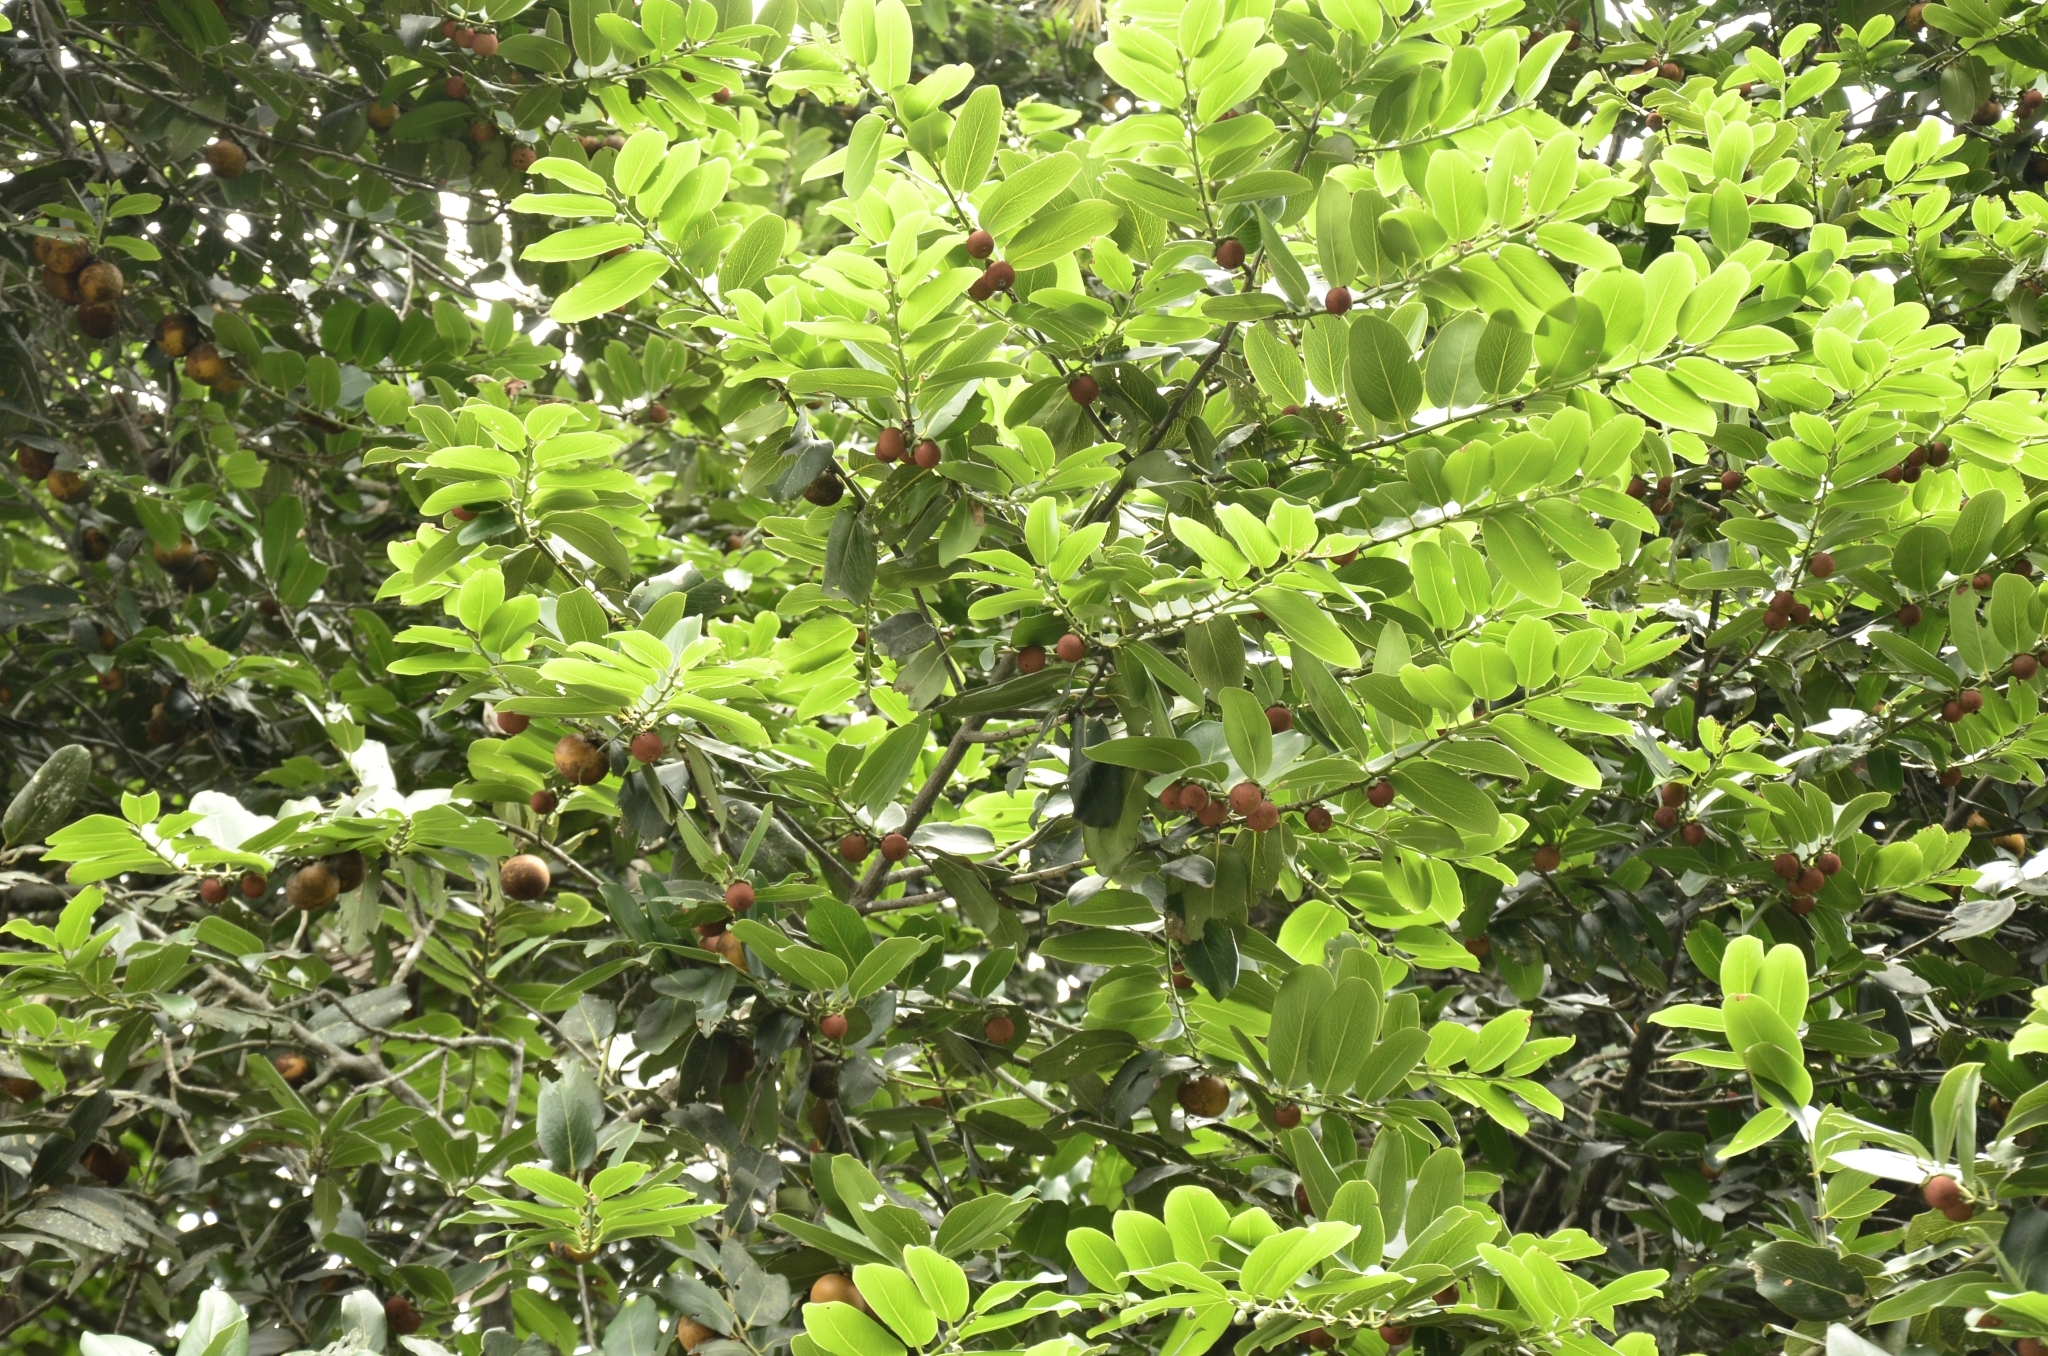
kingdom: Plantae
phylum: Tracheophyta
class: Magnoliopsida
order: Ericales
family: Ebenaceae
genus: Diospyros
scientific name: Diospyros malabarica
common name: Mountain ebony
